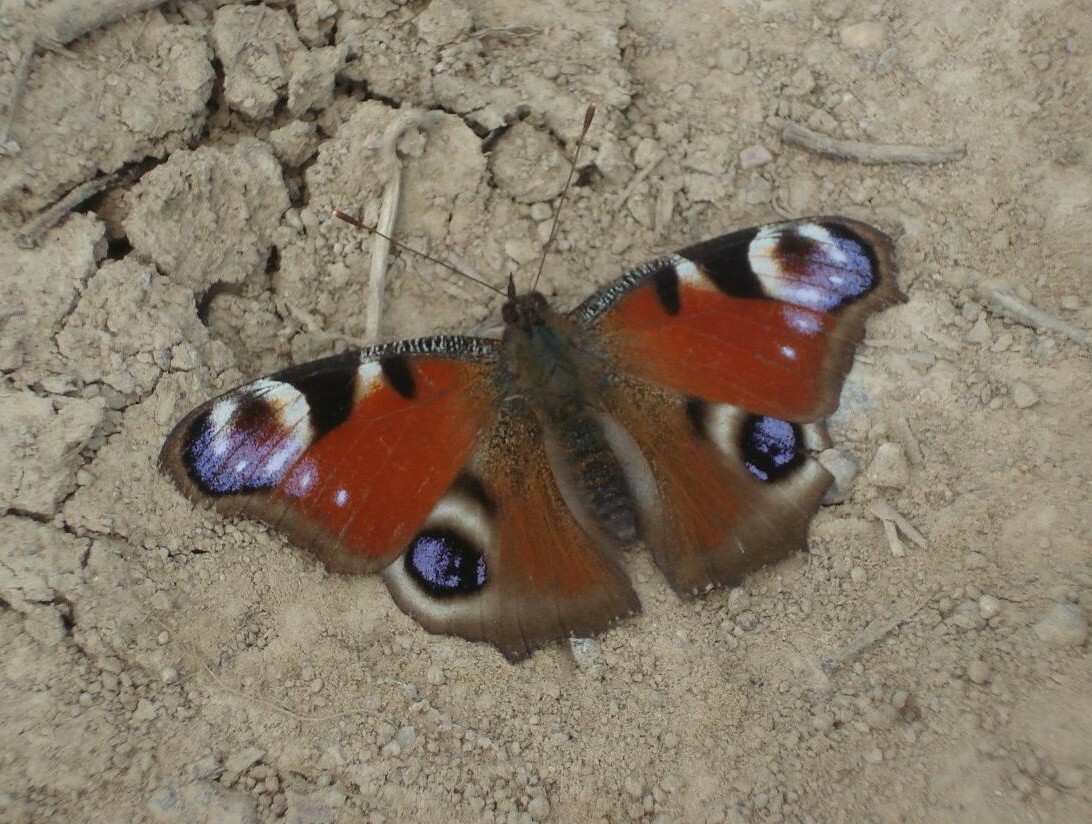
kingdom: Animalia
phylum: Arthropoda
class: Insecta
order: Lepidoptera
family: Nymphalidae
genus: Aglais
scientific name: Aglais io
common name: Peacock
